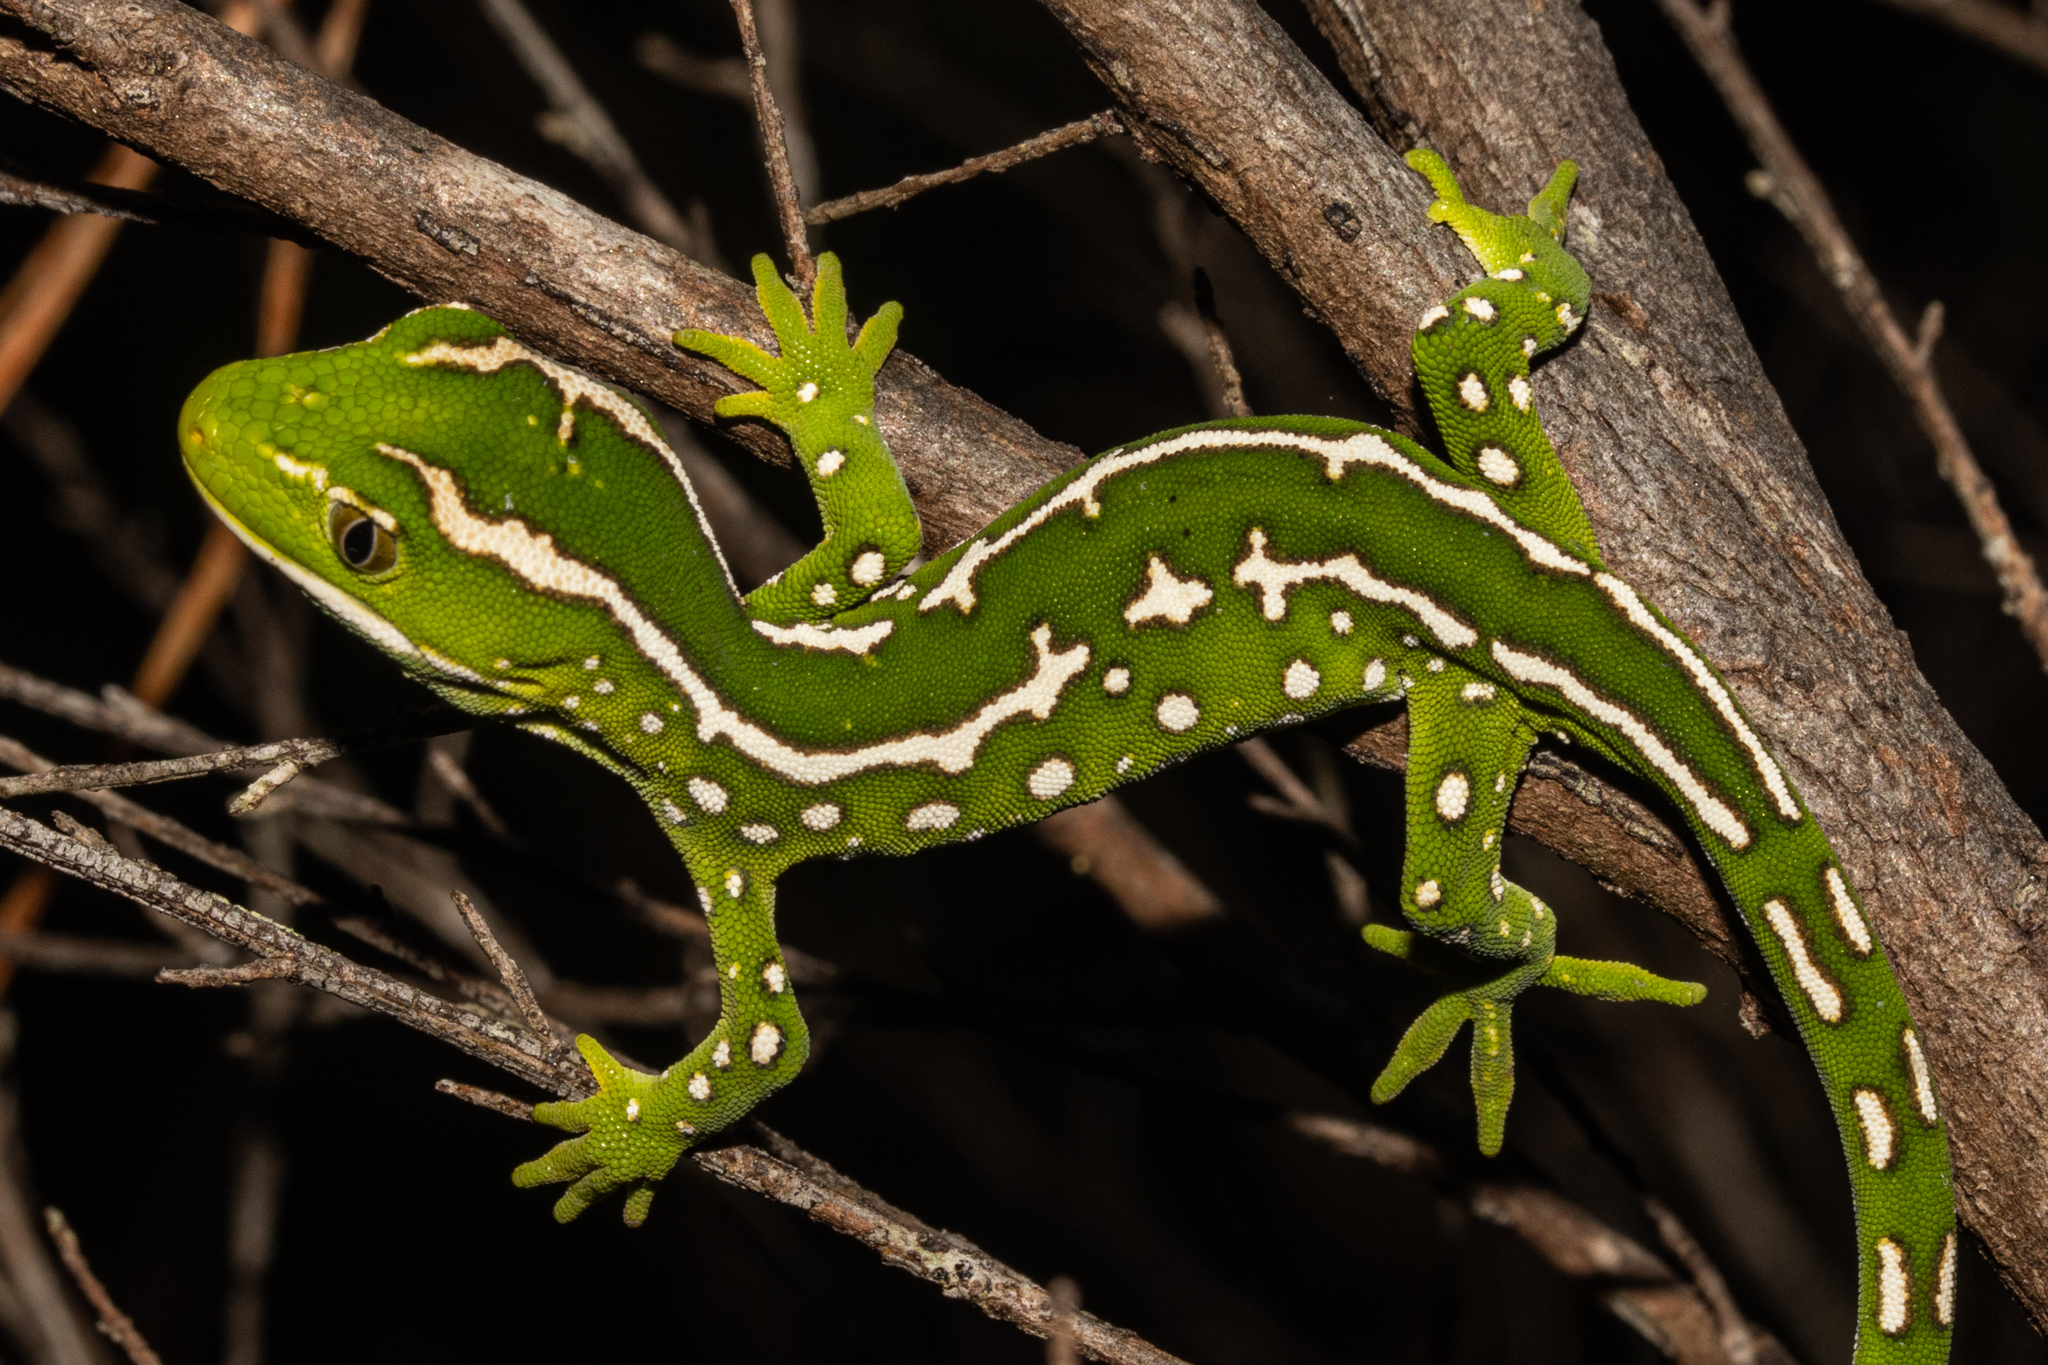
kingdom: Animalia
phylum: Chordata
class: Squamata
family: Diplodactylidae
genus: Naultinus
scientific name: Naultinus grayii
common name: Gray's tree gecko
